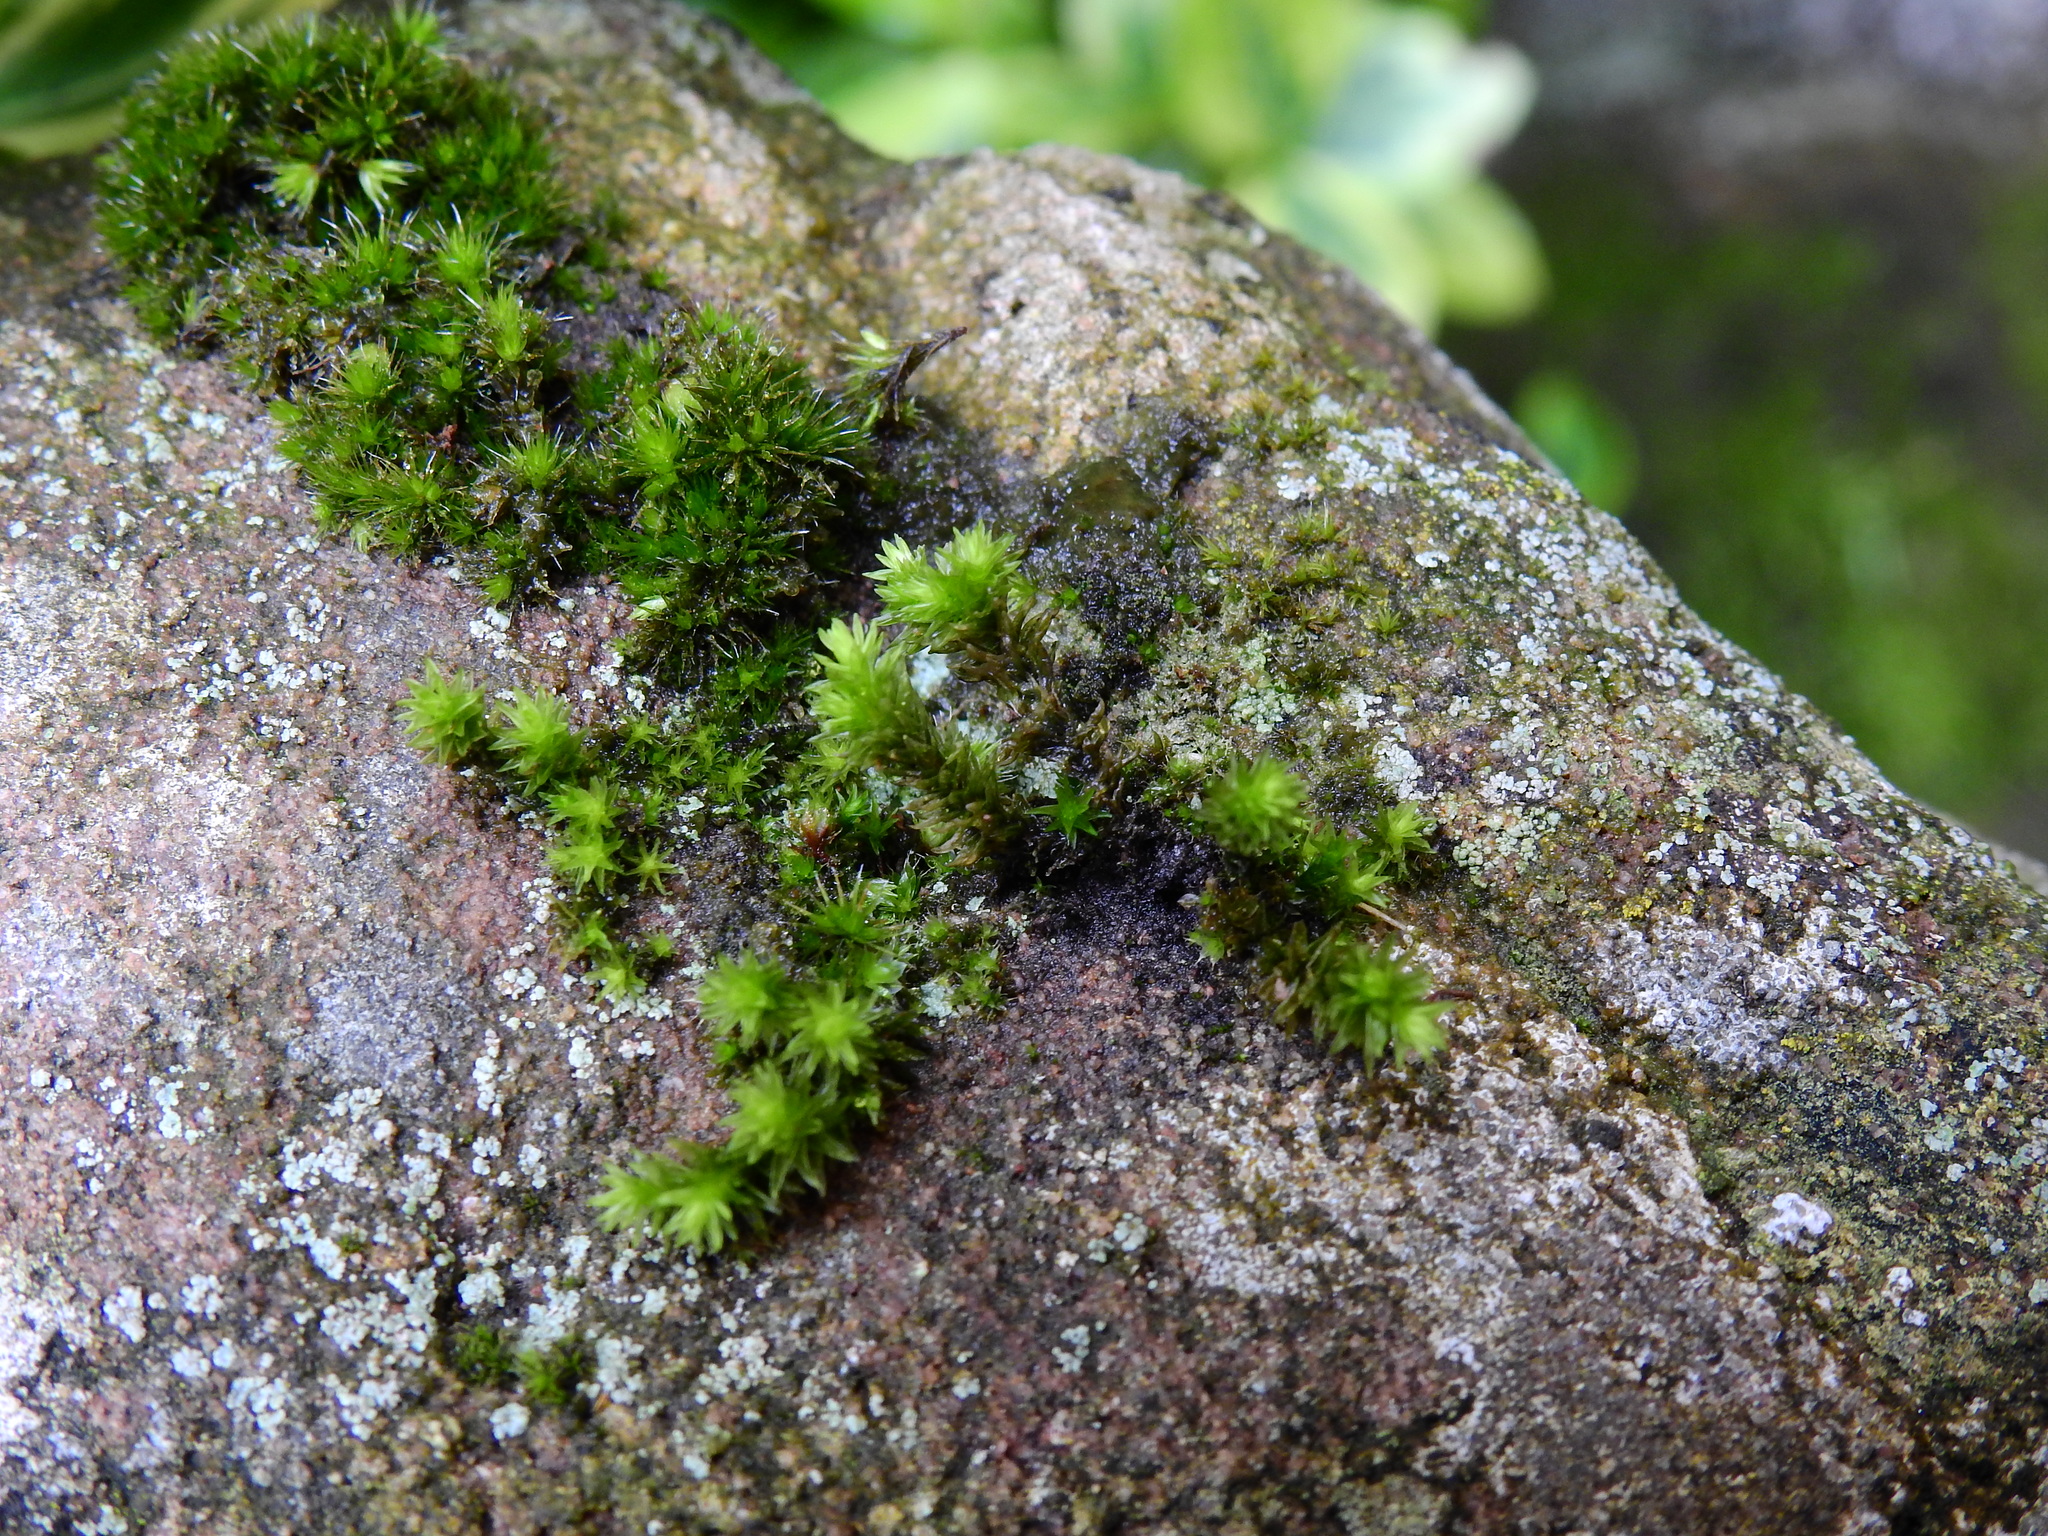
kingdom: Plantae
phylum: Bryophyta
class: Bryopsida
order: Orthotrichales
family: Orthotrichaceae
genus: Orthotrichum
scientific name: Orthotrichum anomalum
